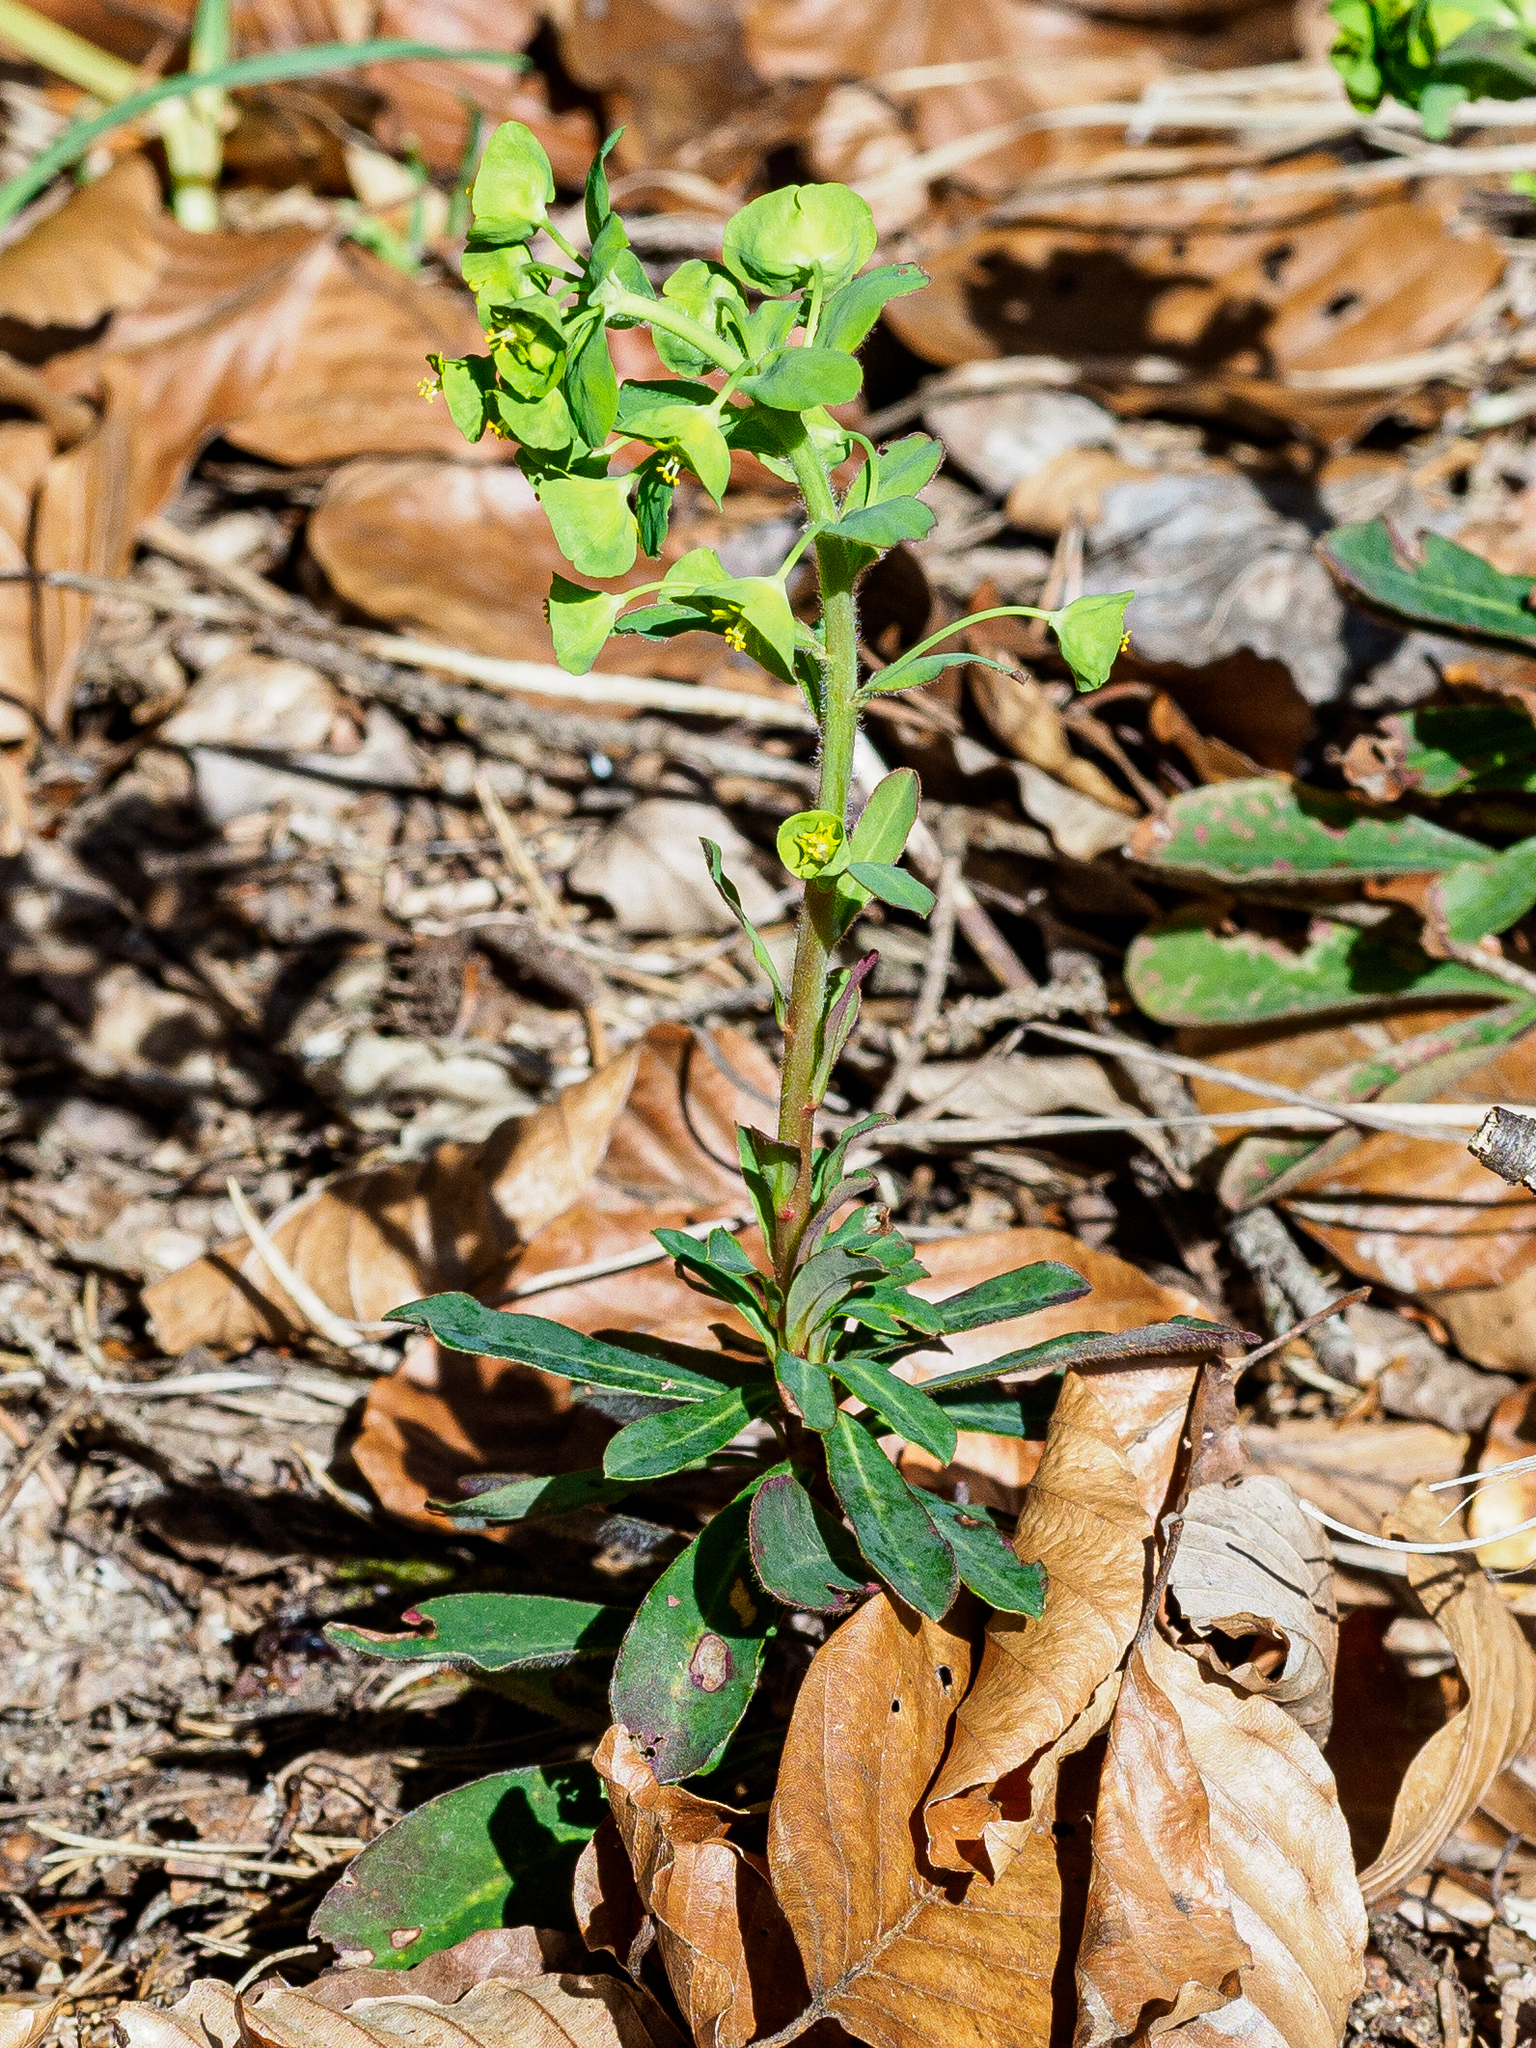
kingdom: Plantae
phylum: Tracheophyta
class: Magnoliopsida
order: Malpighiales
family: Euphorbiaceae
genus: Euphorbia
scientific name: Euphorbia amygdaloides
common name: Wood spurge
